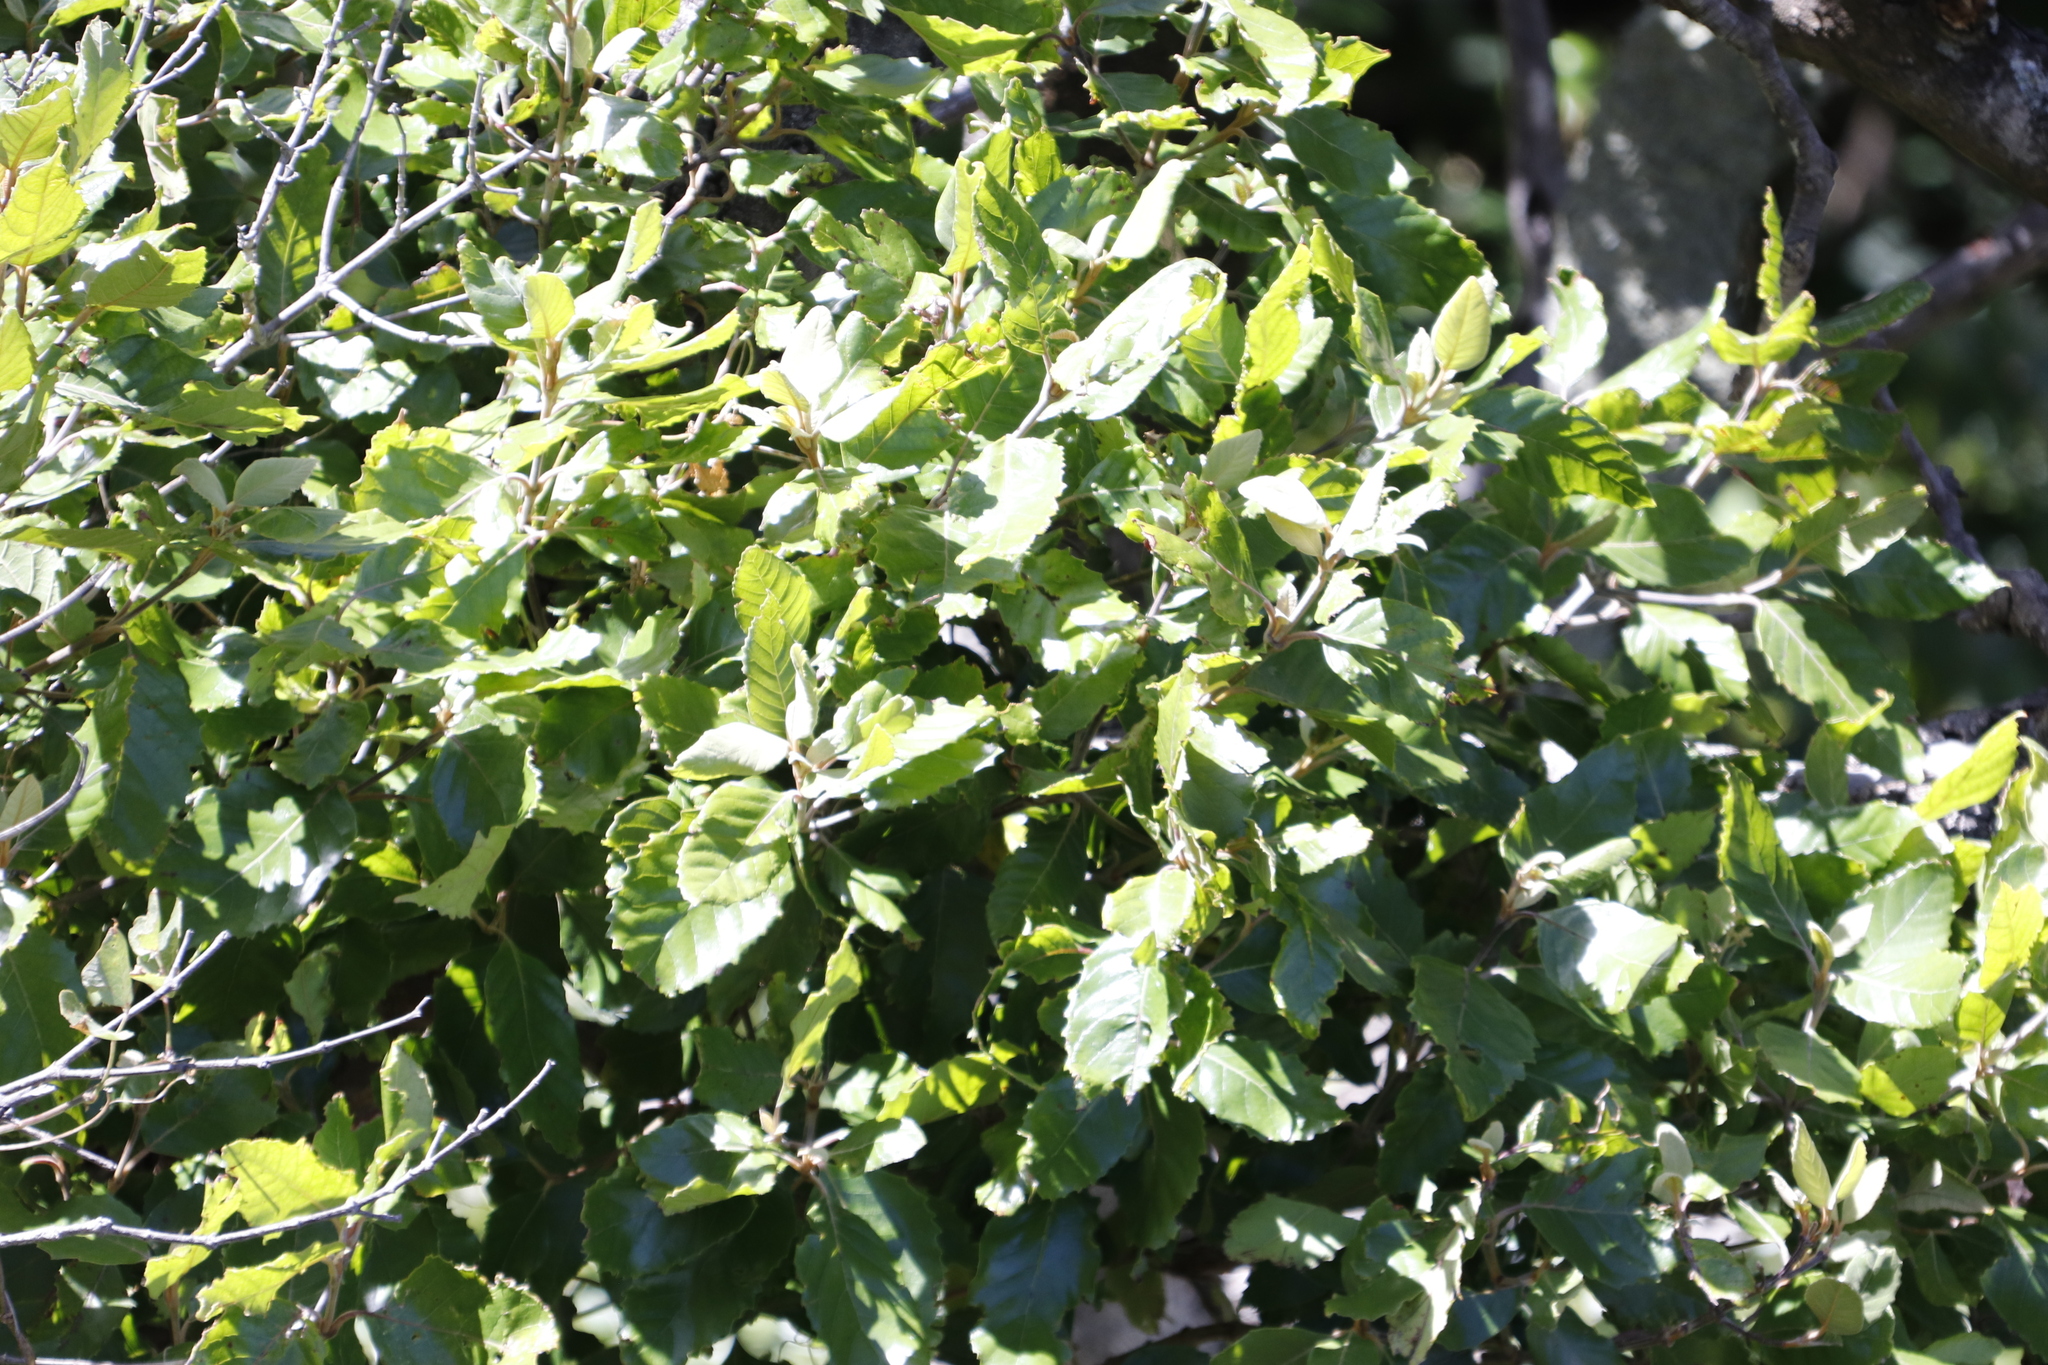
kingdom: Plantae
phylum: Tracheophyta
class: Magnoliopsida
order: Cornales
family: Curtisiaceae
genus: Curtisia
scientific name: Curtisia dentata
